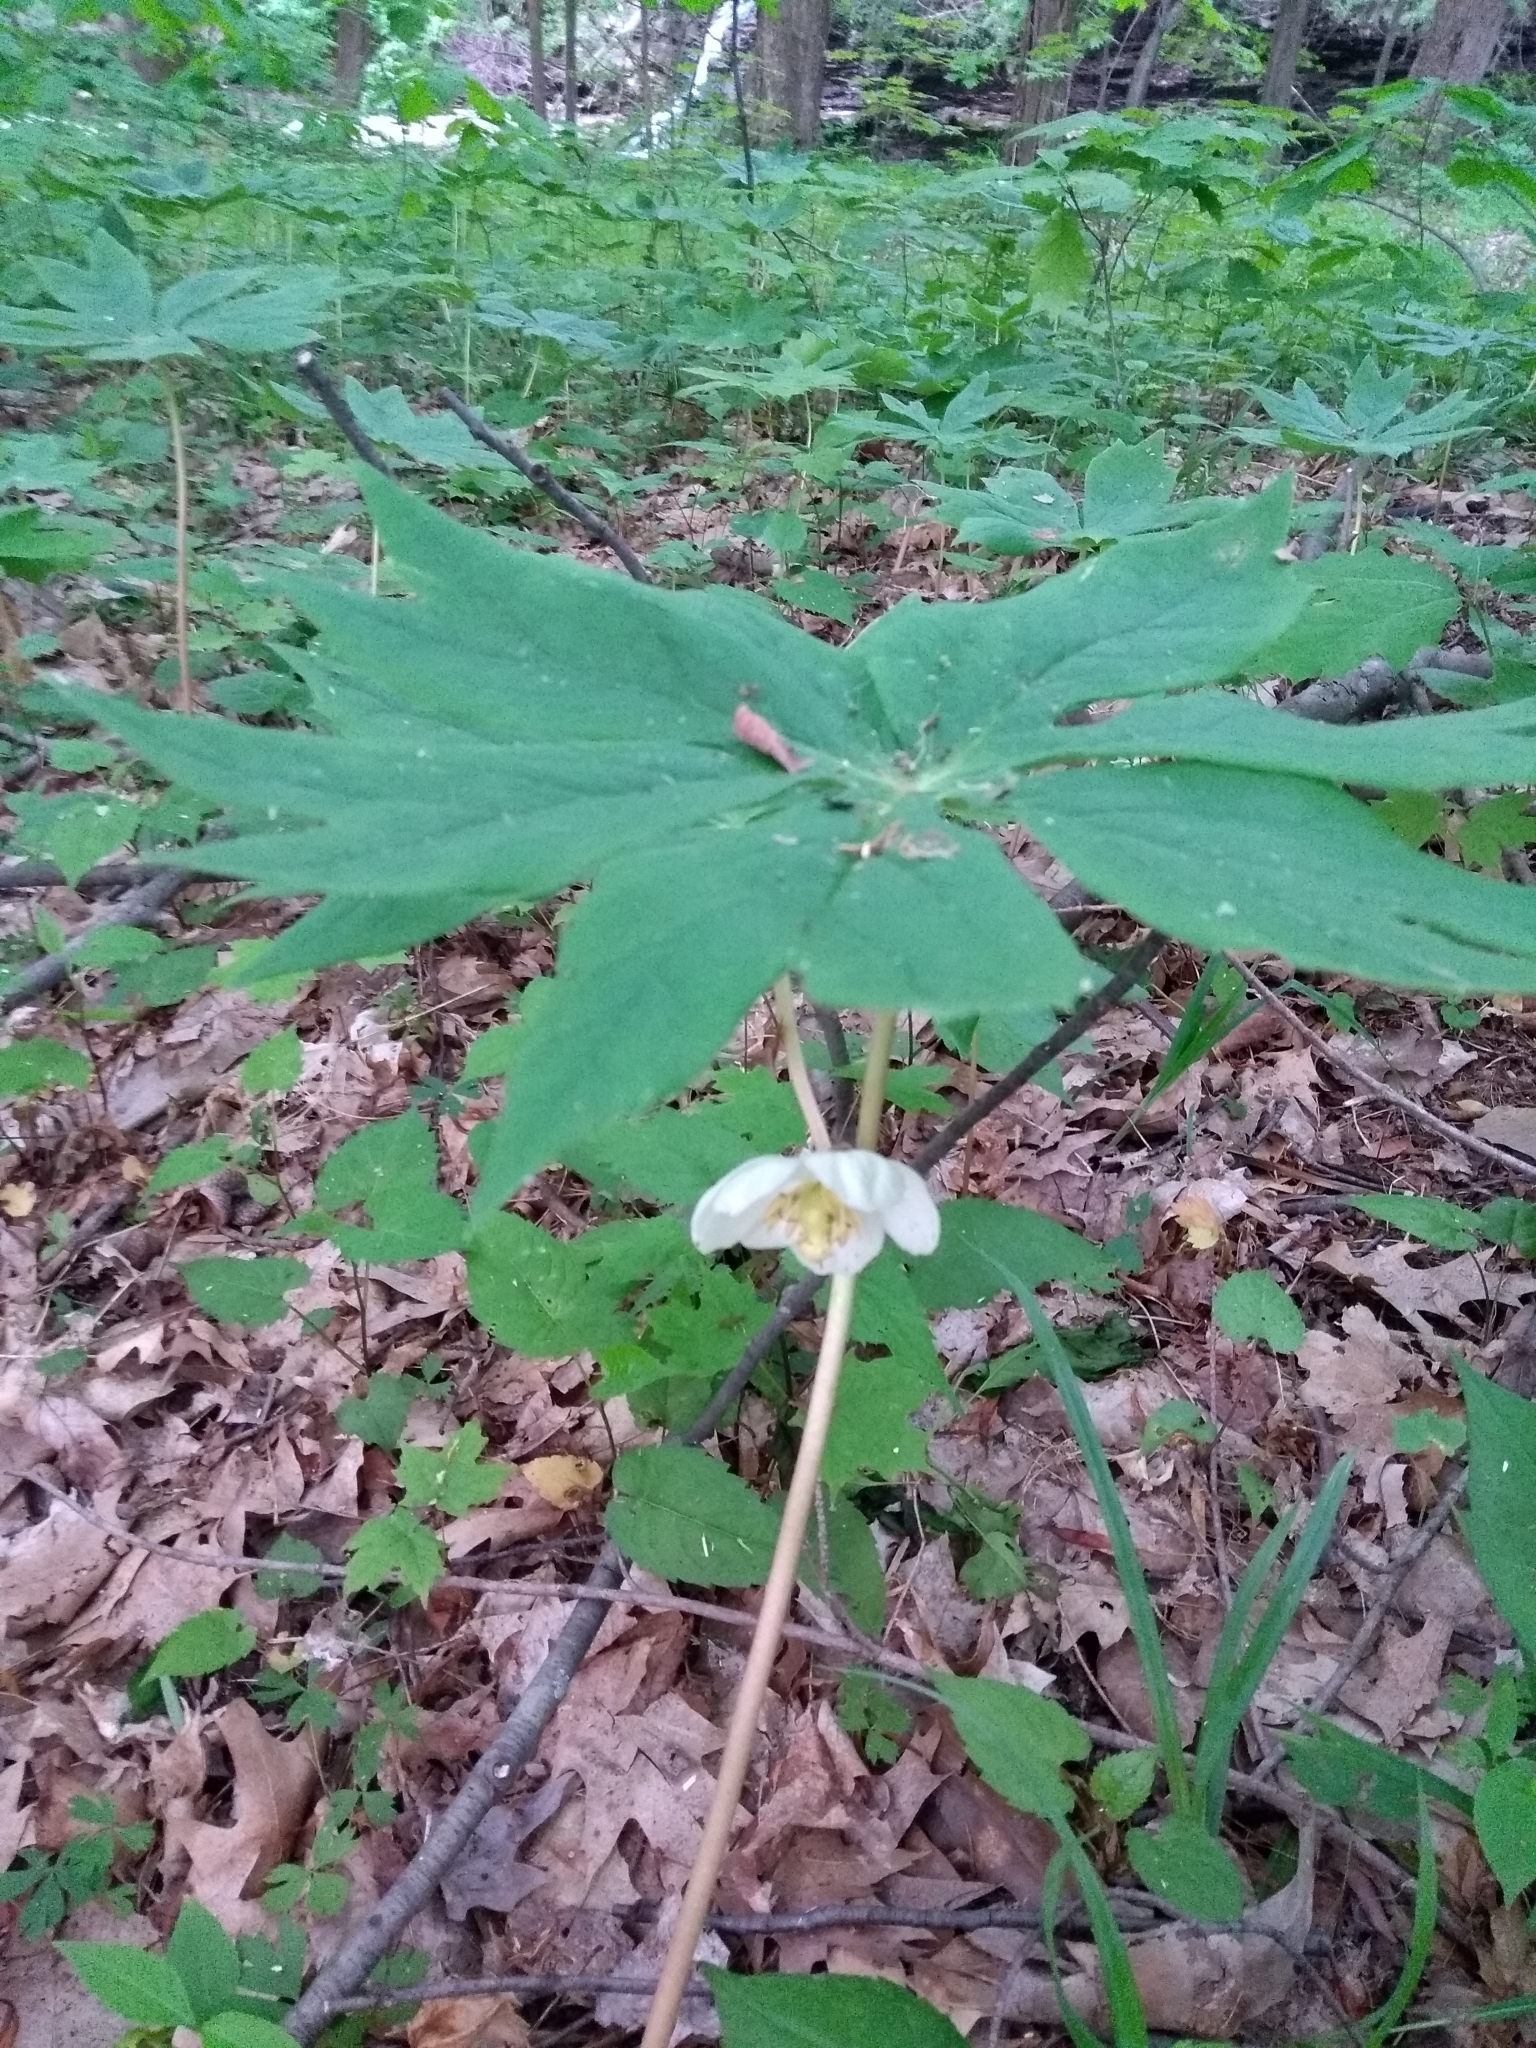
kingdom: Plantae
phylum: Tracheophyta
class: Magnoliopsida
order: Ranunculales
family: Berberidaceae
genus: Podophyllum
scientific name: Podophyllum peltatum
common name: Wild mandrake
